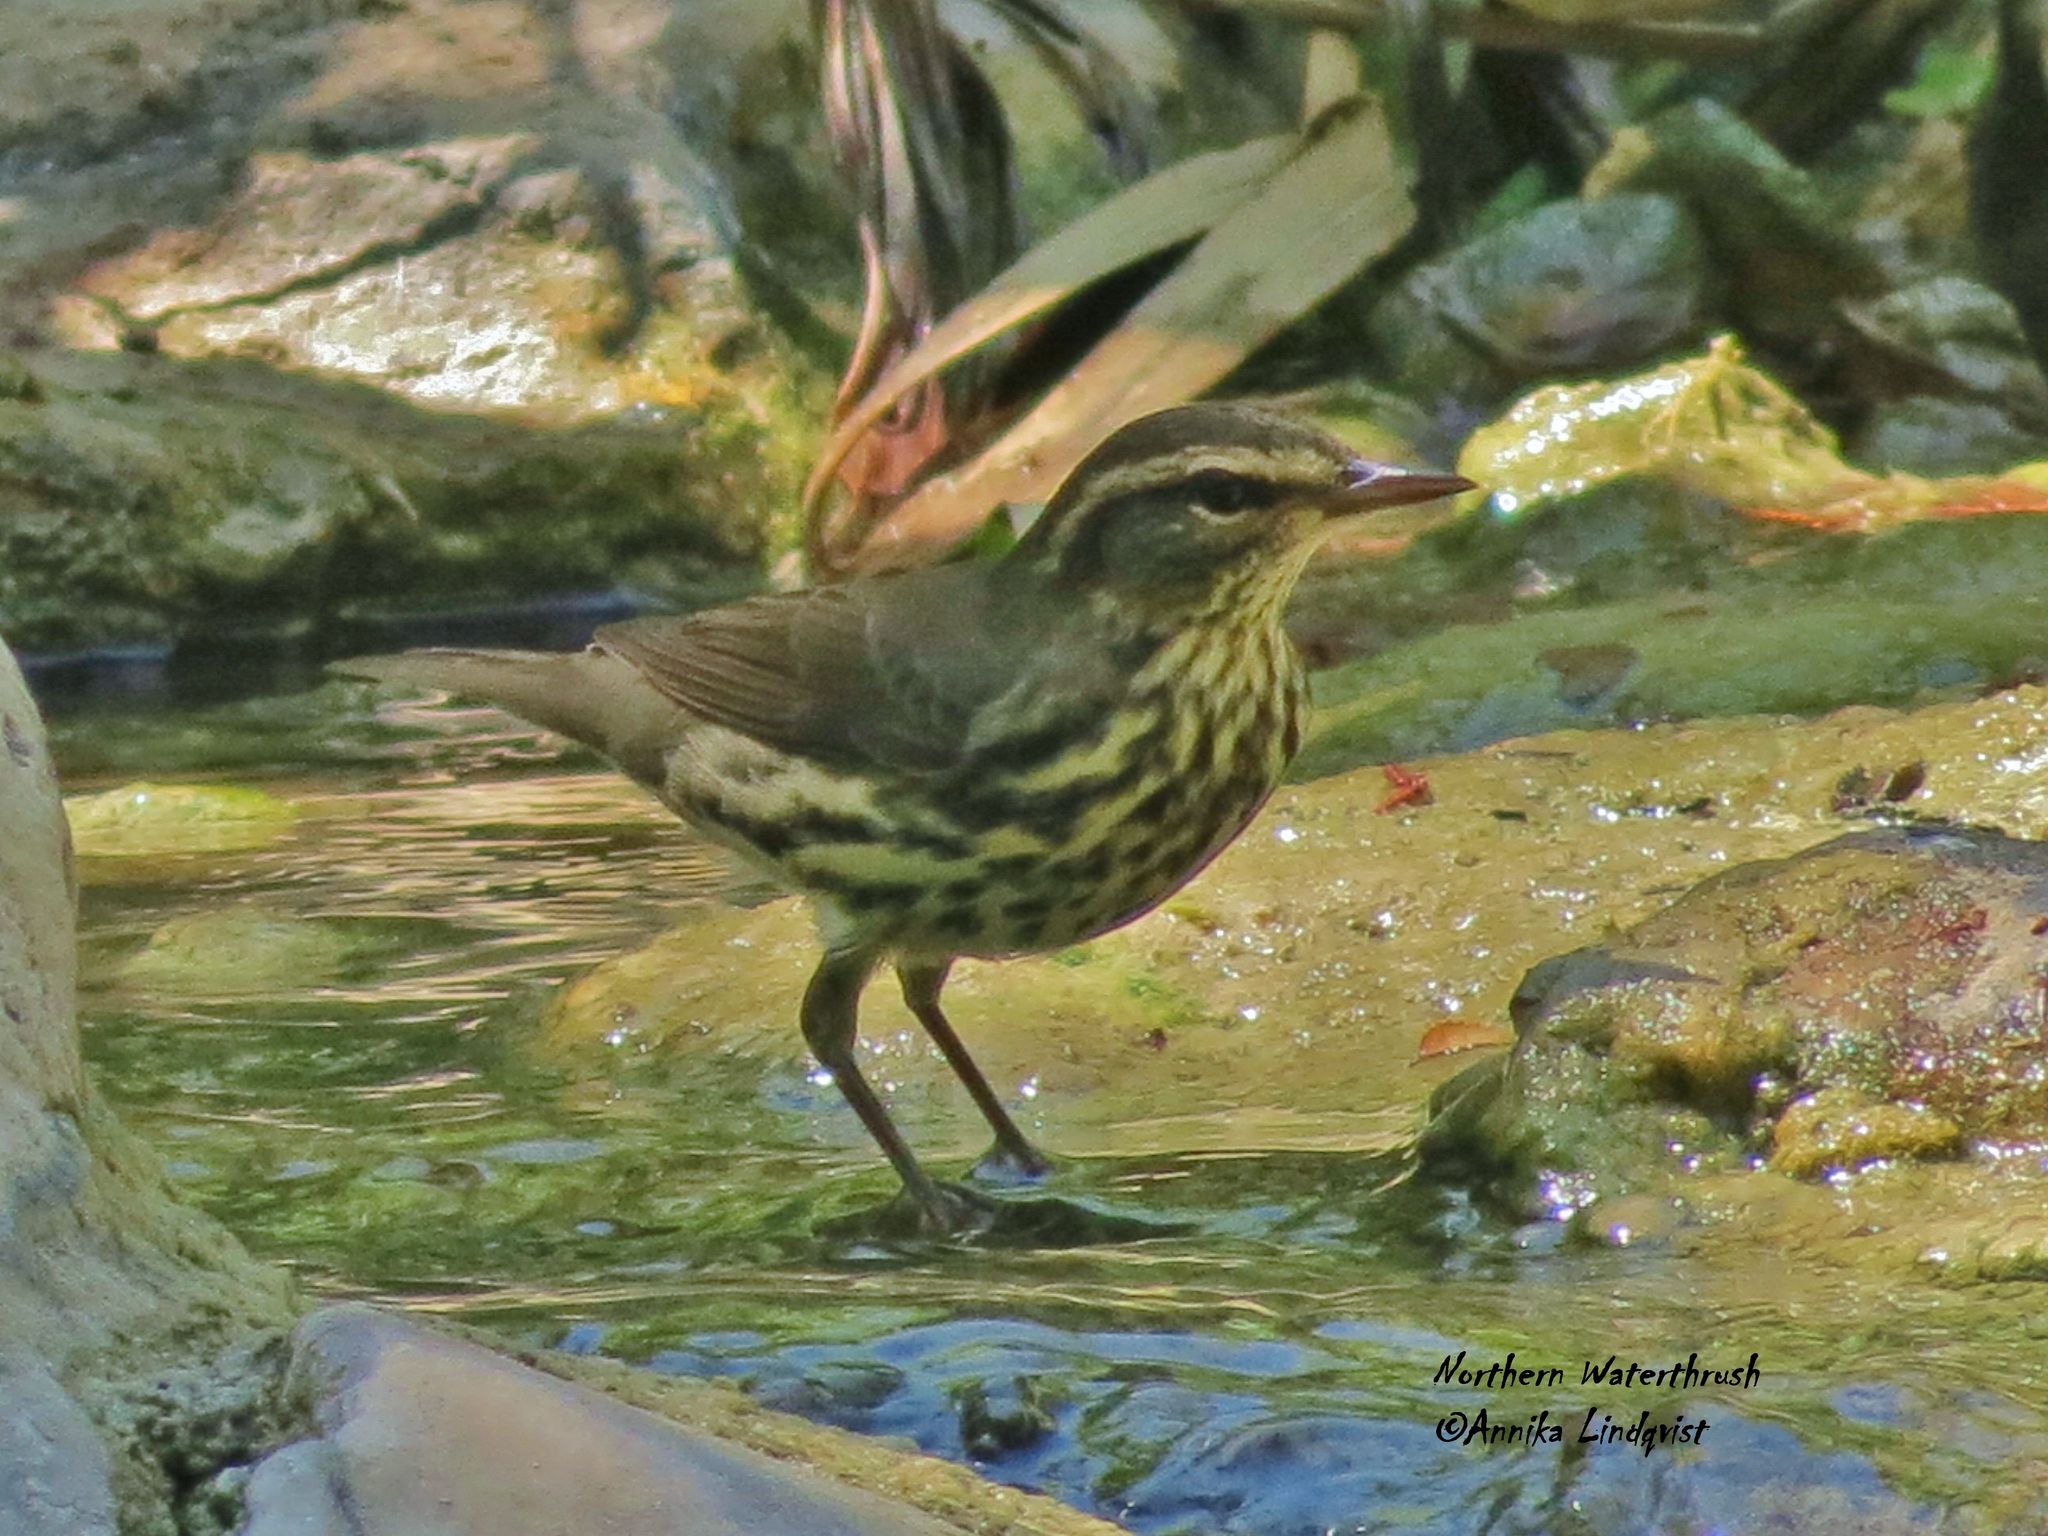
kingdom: Animalia
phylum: Chordata
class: Aves
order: Passeriformes
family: Parulidae
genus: Parkesia
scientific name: Parkesia noveboracensis
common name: Northern waterthrush
